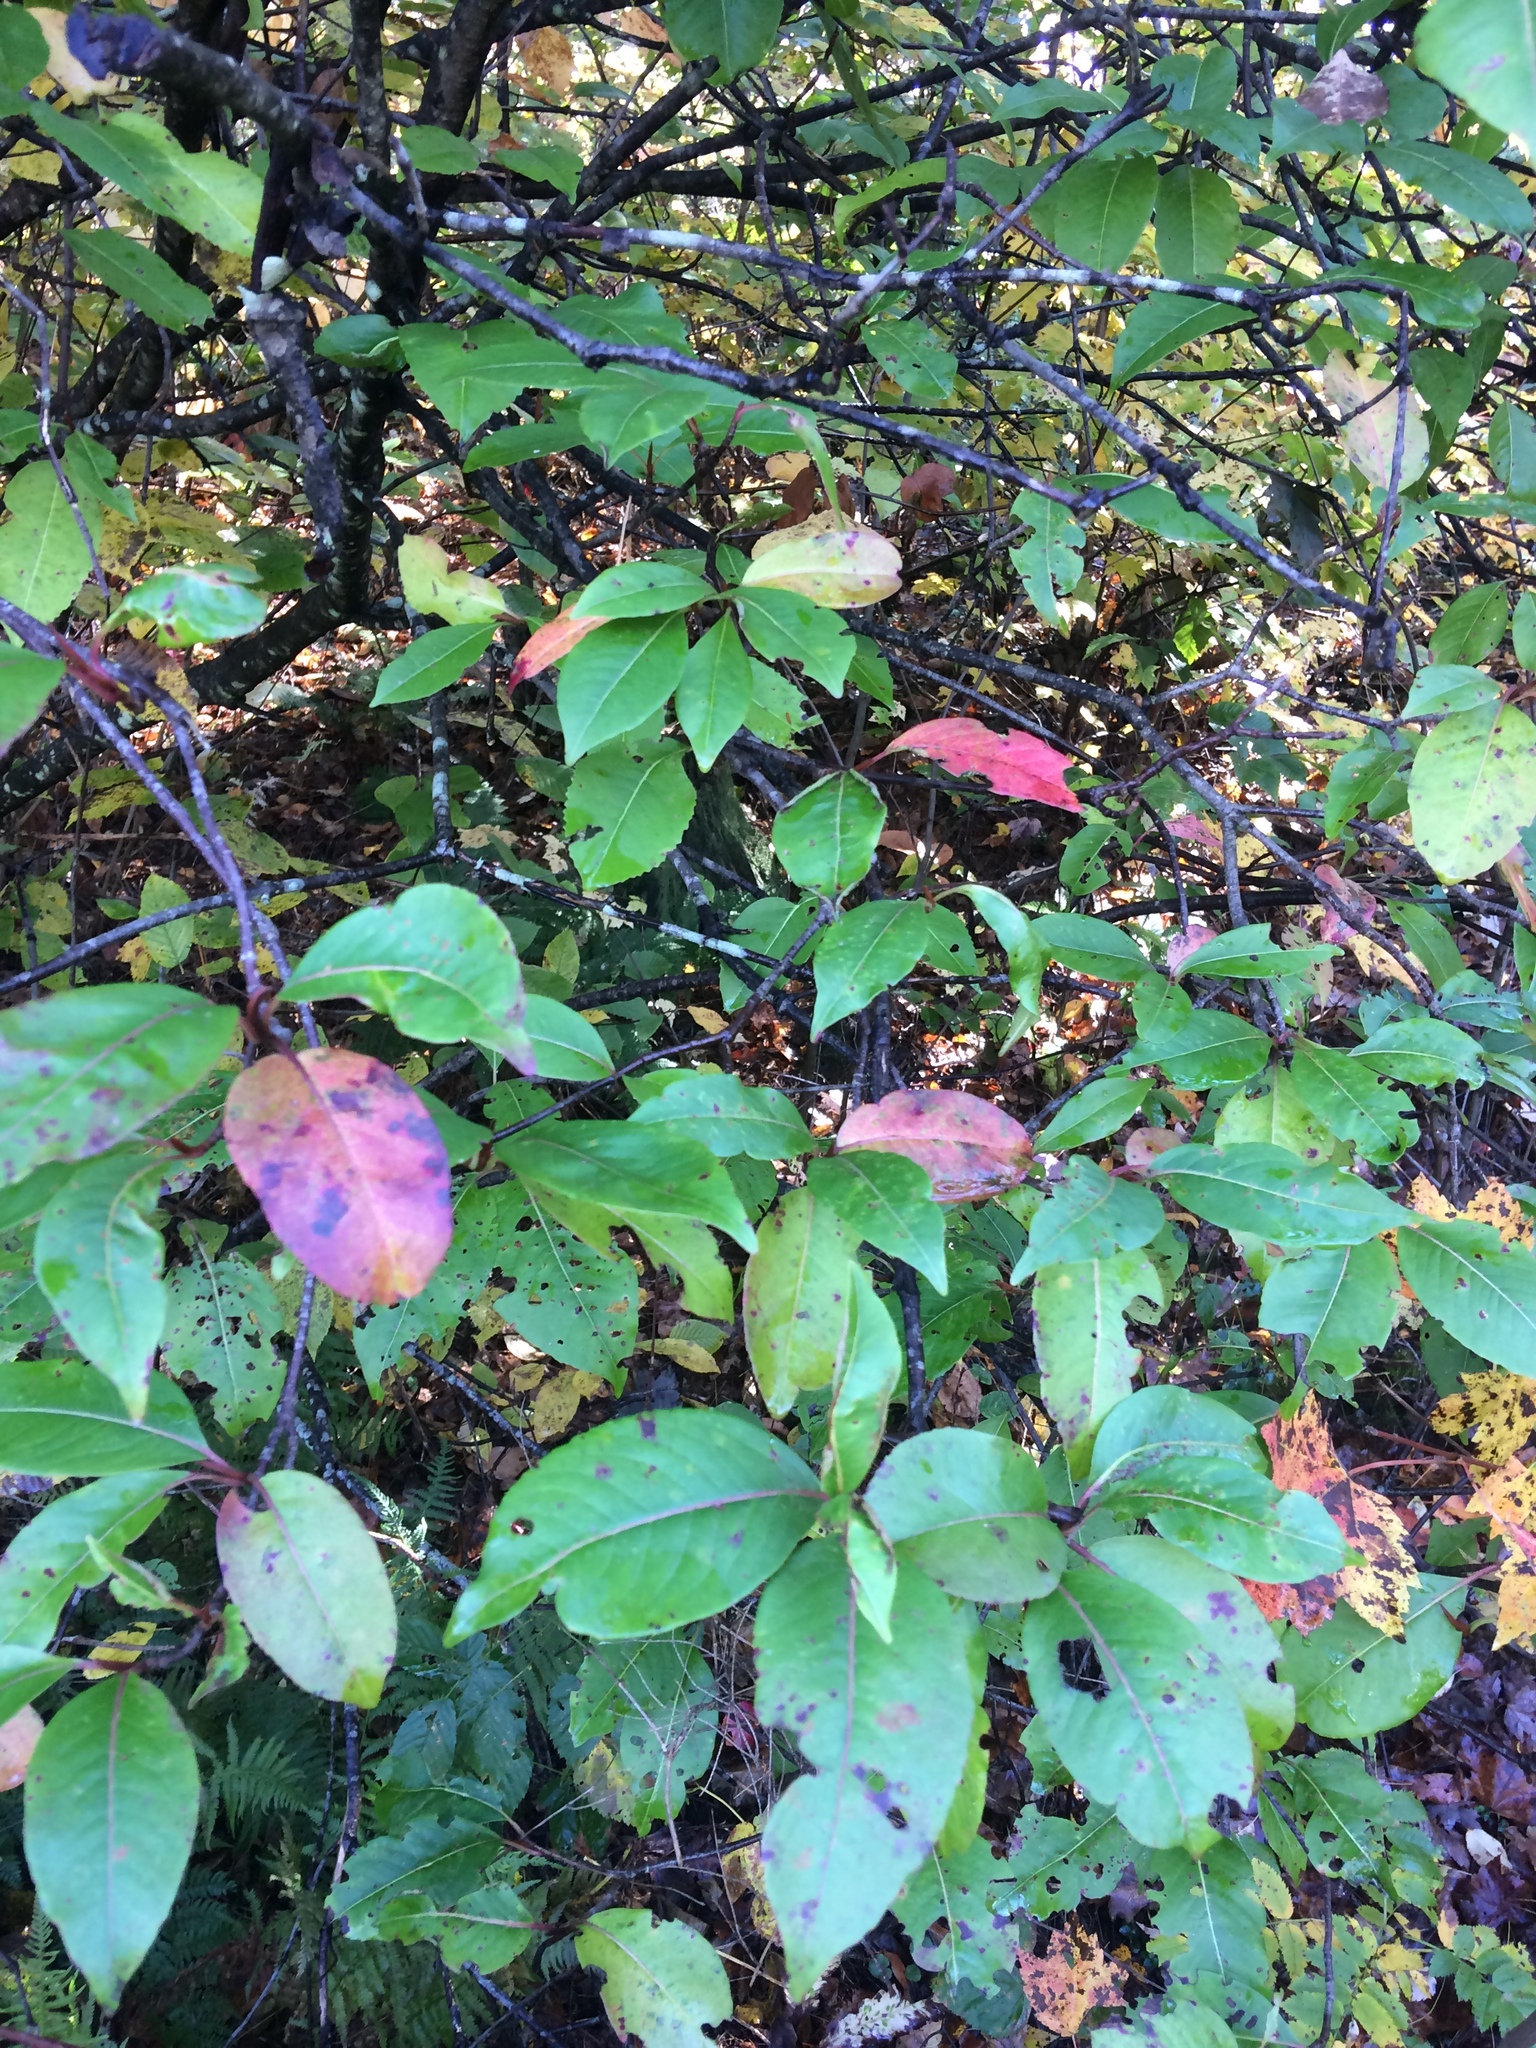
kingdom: Plantae
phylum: Tracheophyta
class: Magnoliopsida
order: Dipsacales
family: Viburnaceae
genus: Viburnum
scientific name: Viburnum cassinoides
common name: Swamp haw
